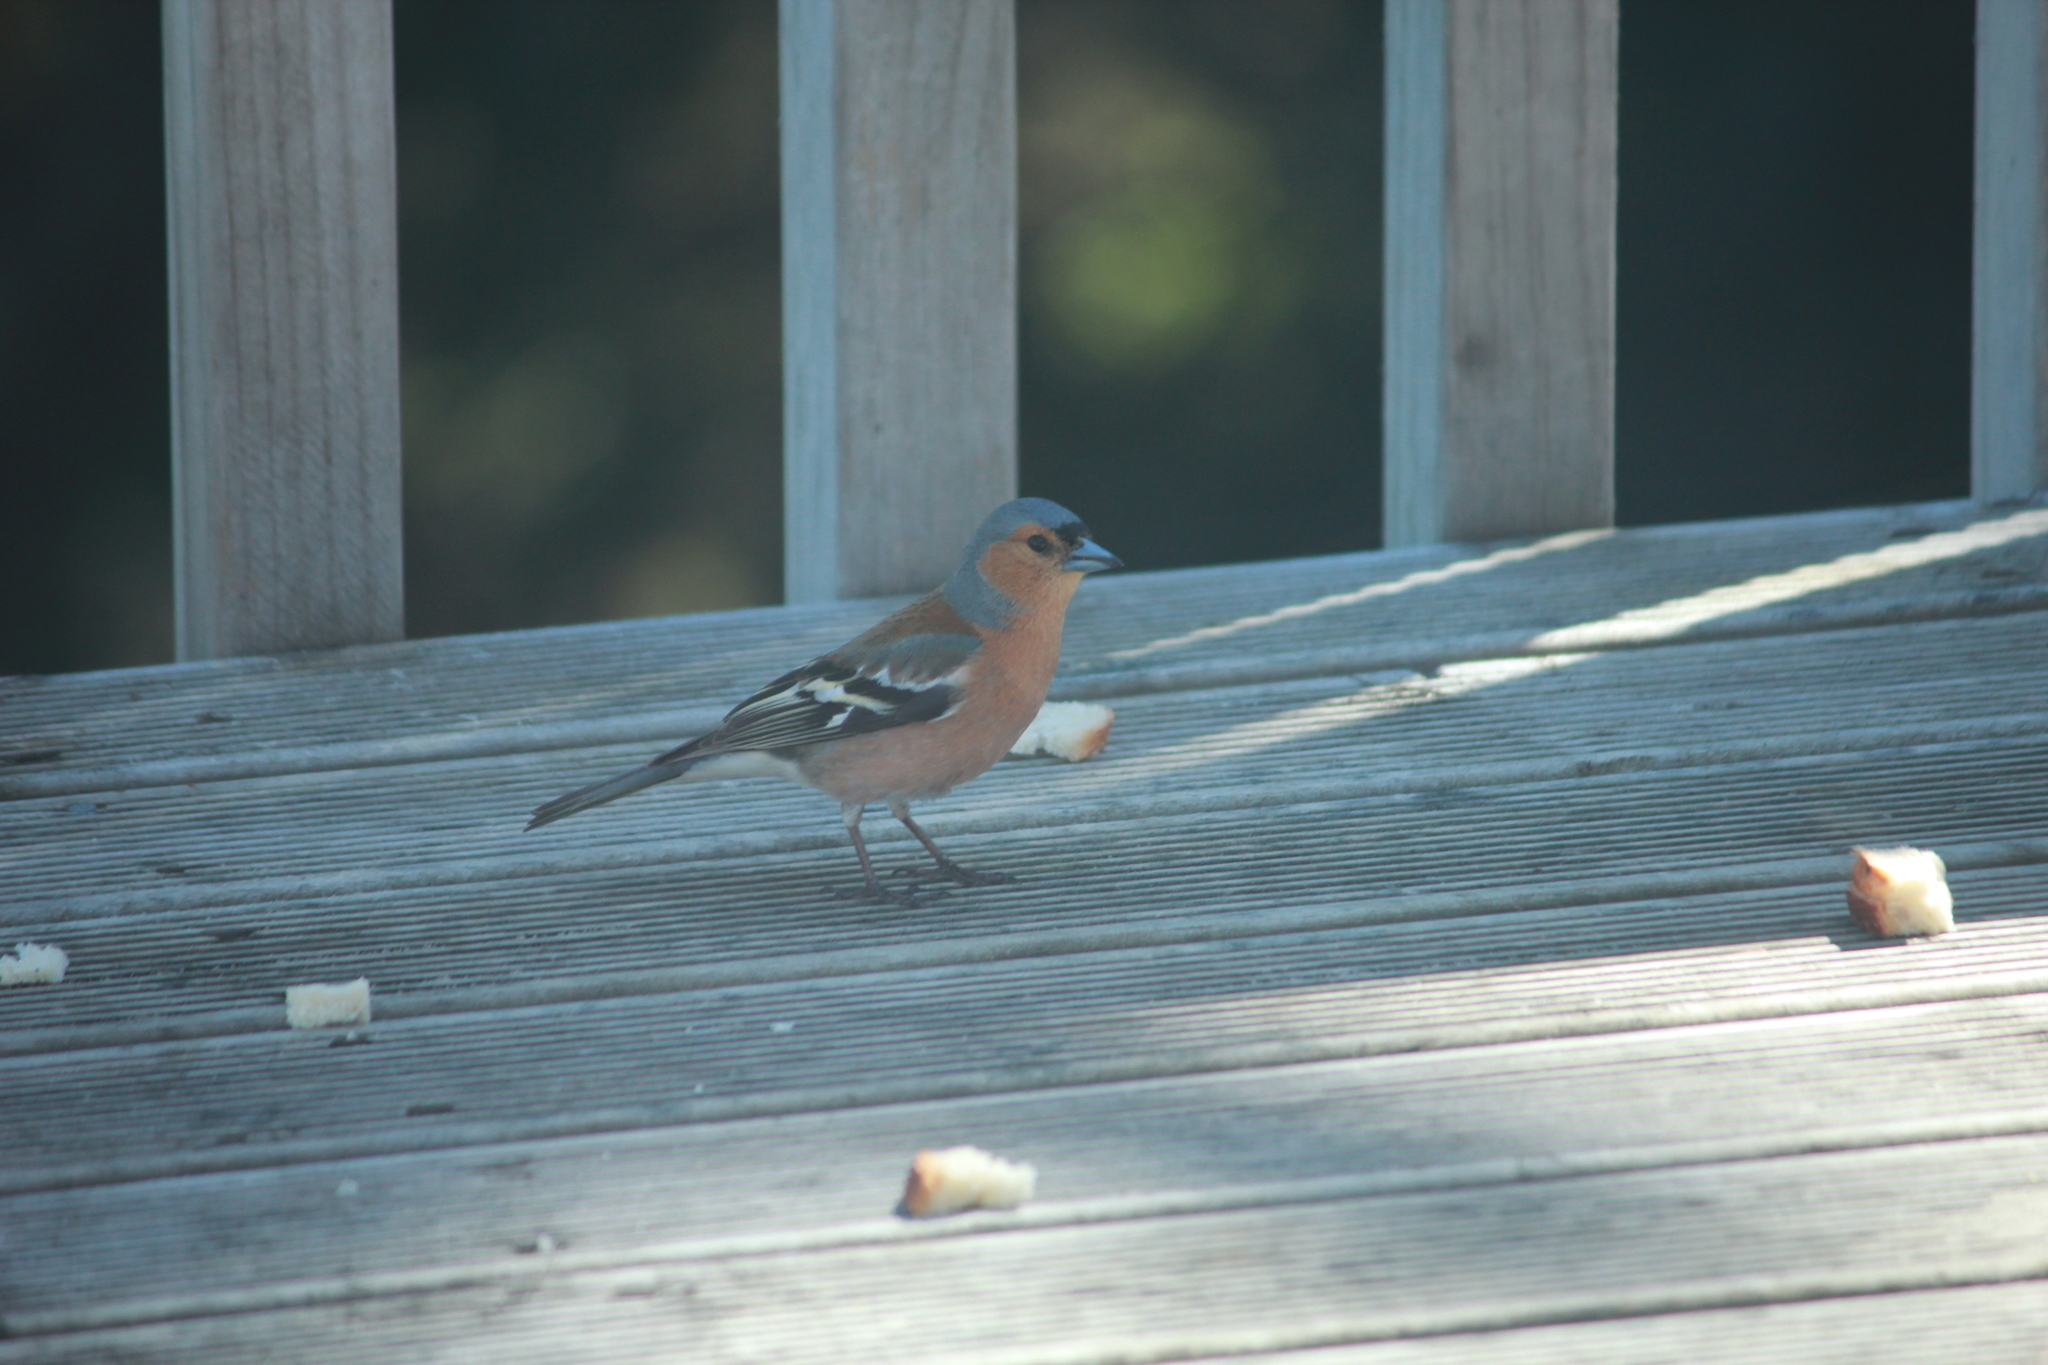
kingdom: Animalia
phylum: Chordata
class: Aves
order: Passeriformes
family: Fringillidae
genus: Fringilla
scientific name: Fringilla coelebs
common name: Common chaffinch
